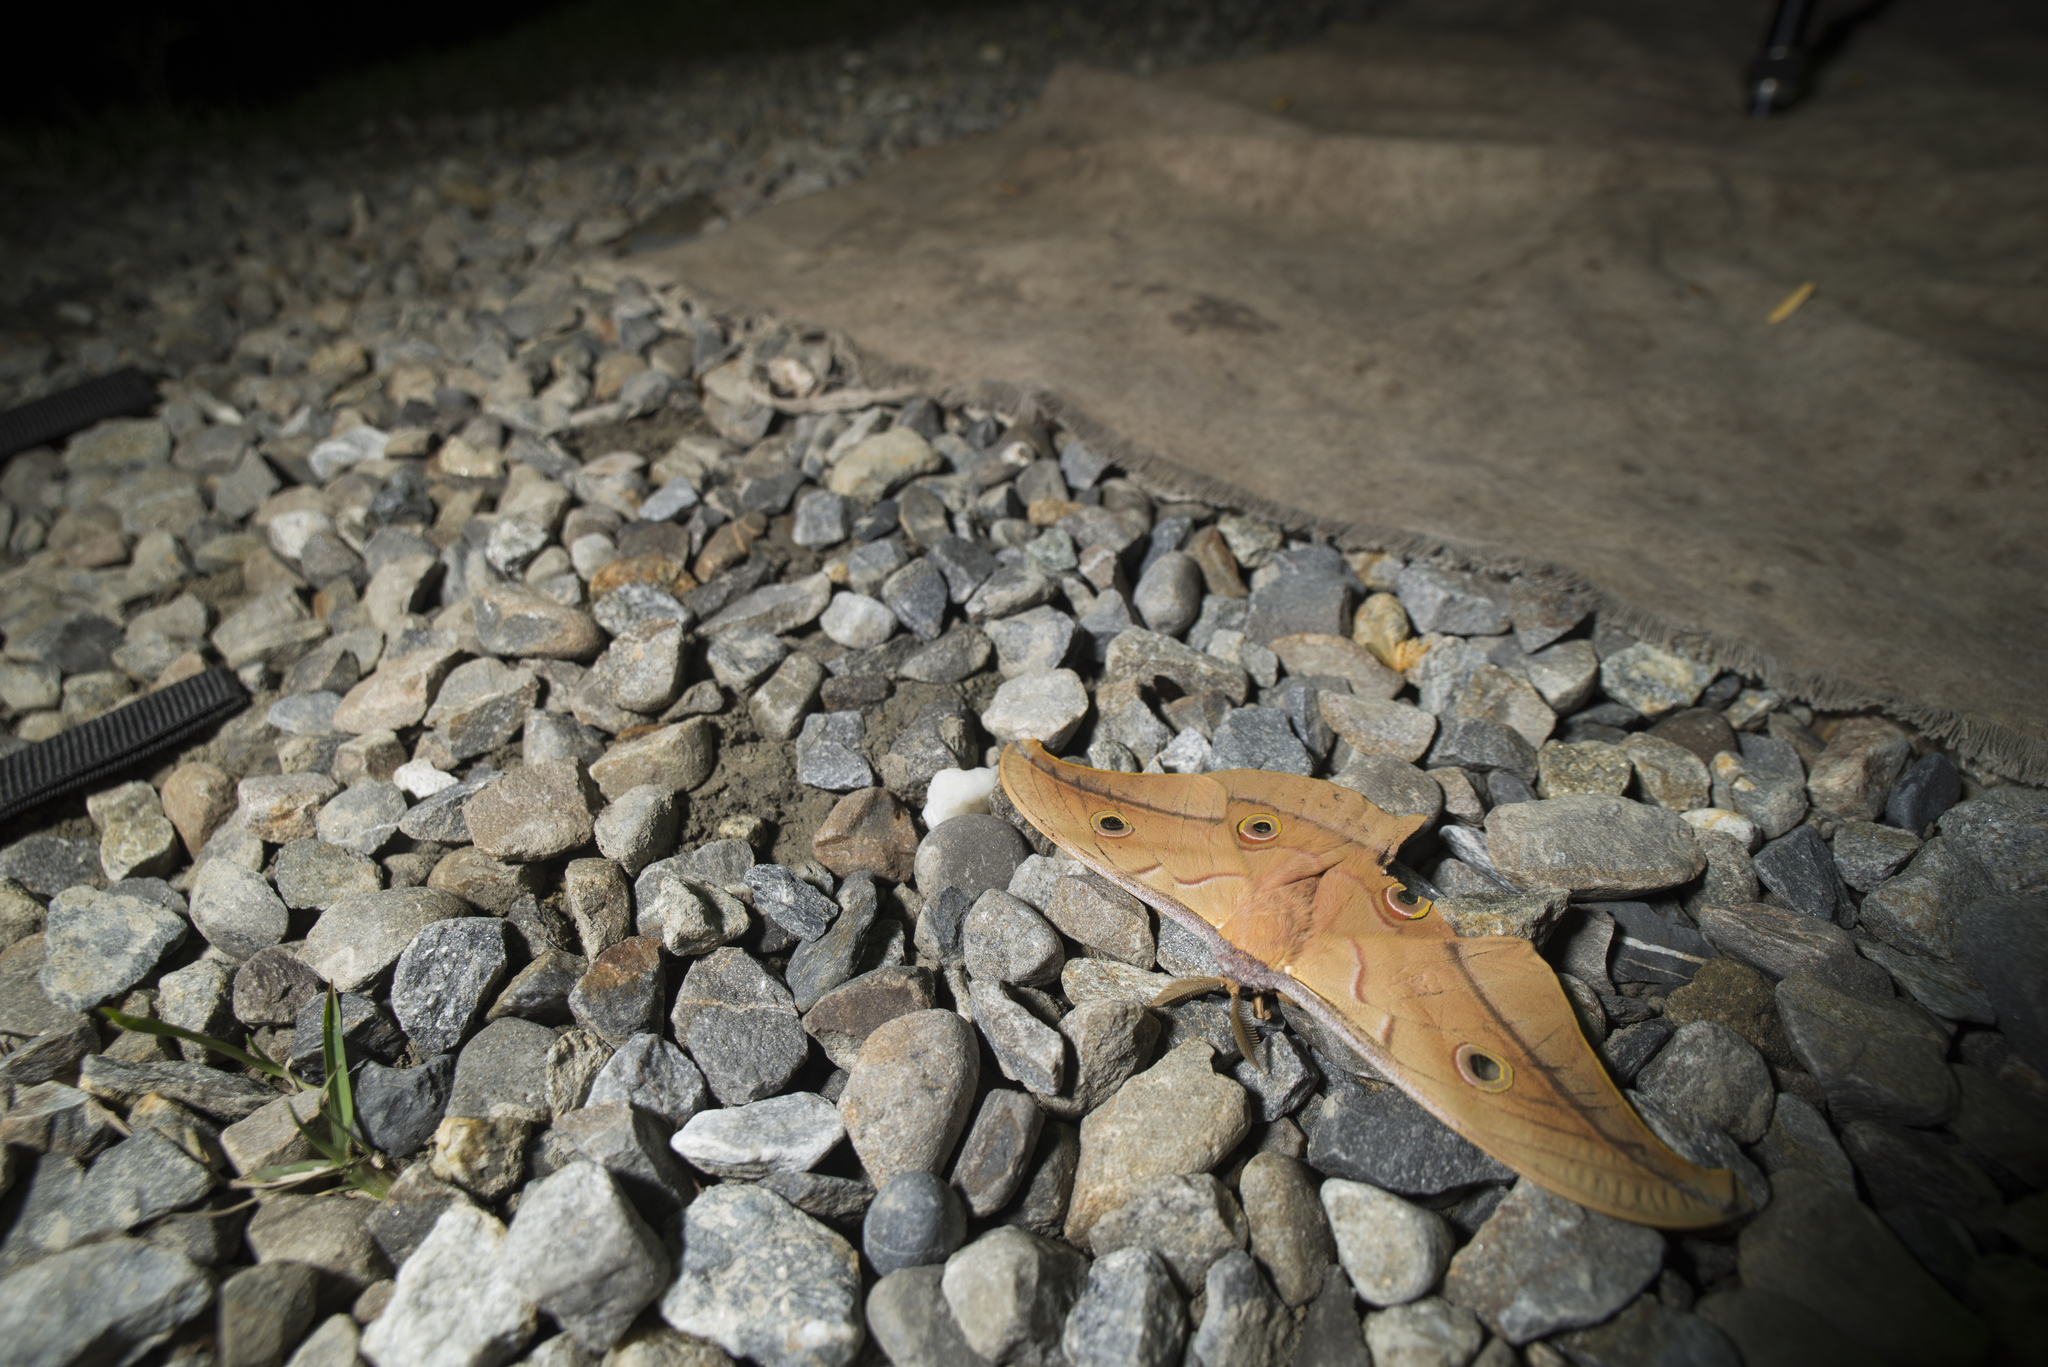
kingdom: Animalia
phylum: Arthropoda
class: Insecta
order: Lepidoptera
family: Saturniidae
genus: Antheraea
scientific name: Antheraea pernyi
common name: Chinese oak silk moth
